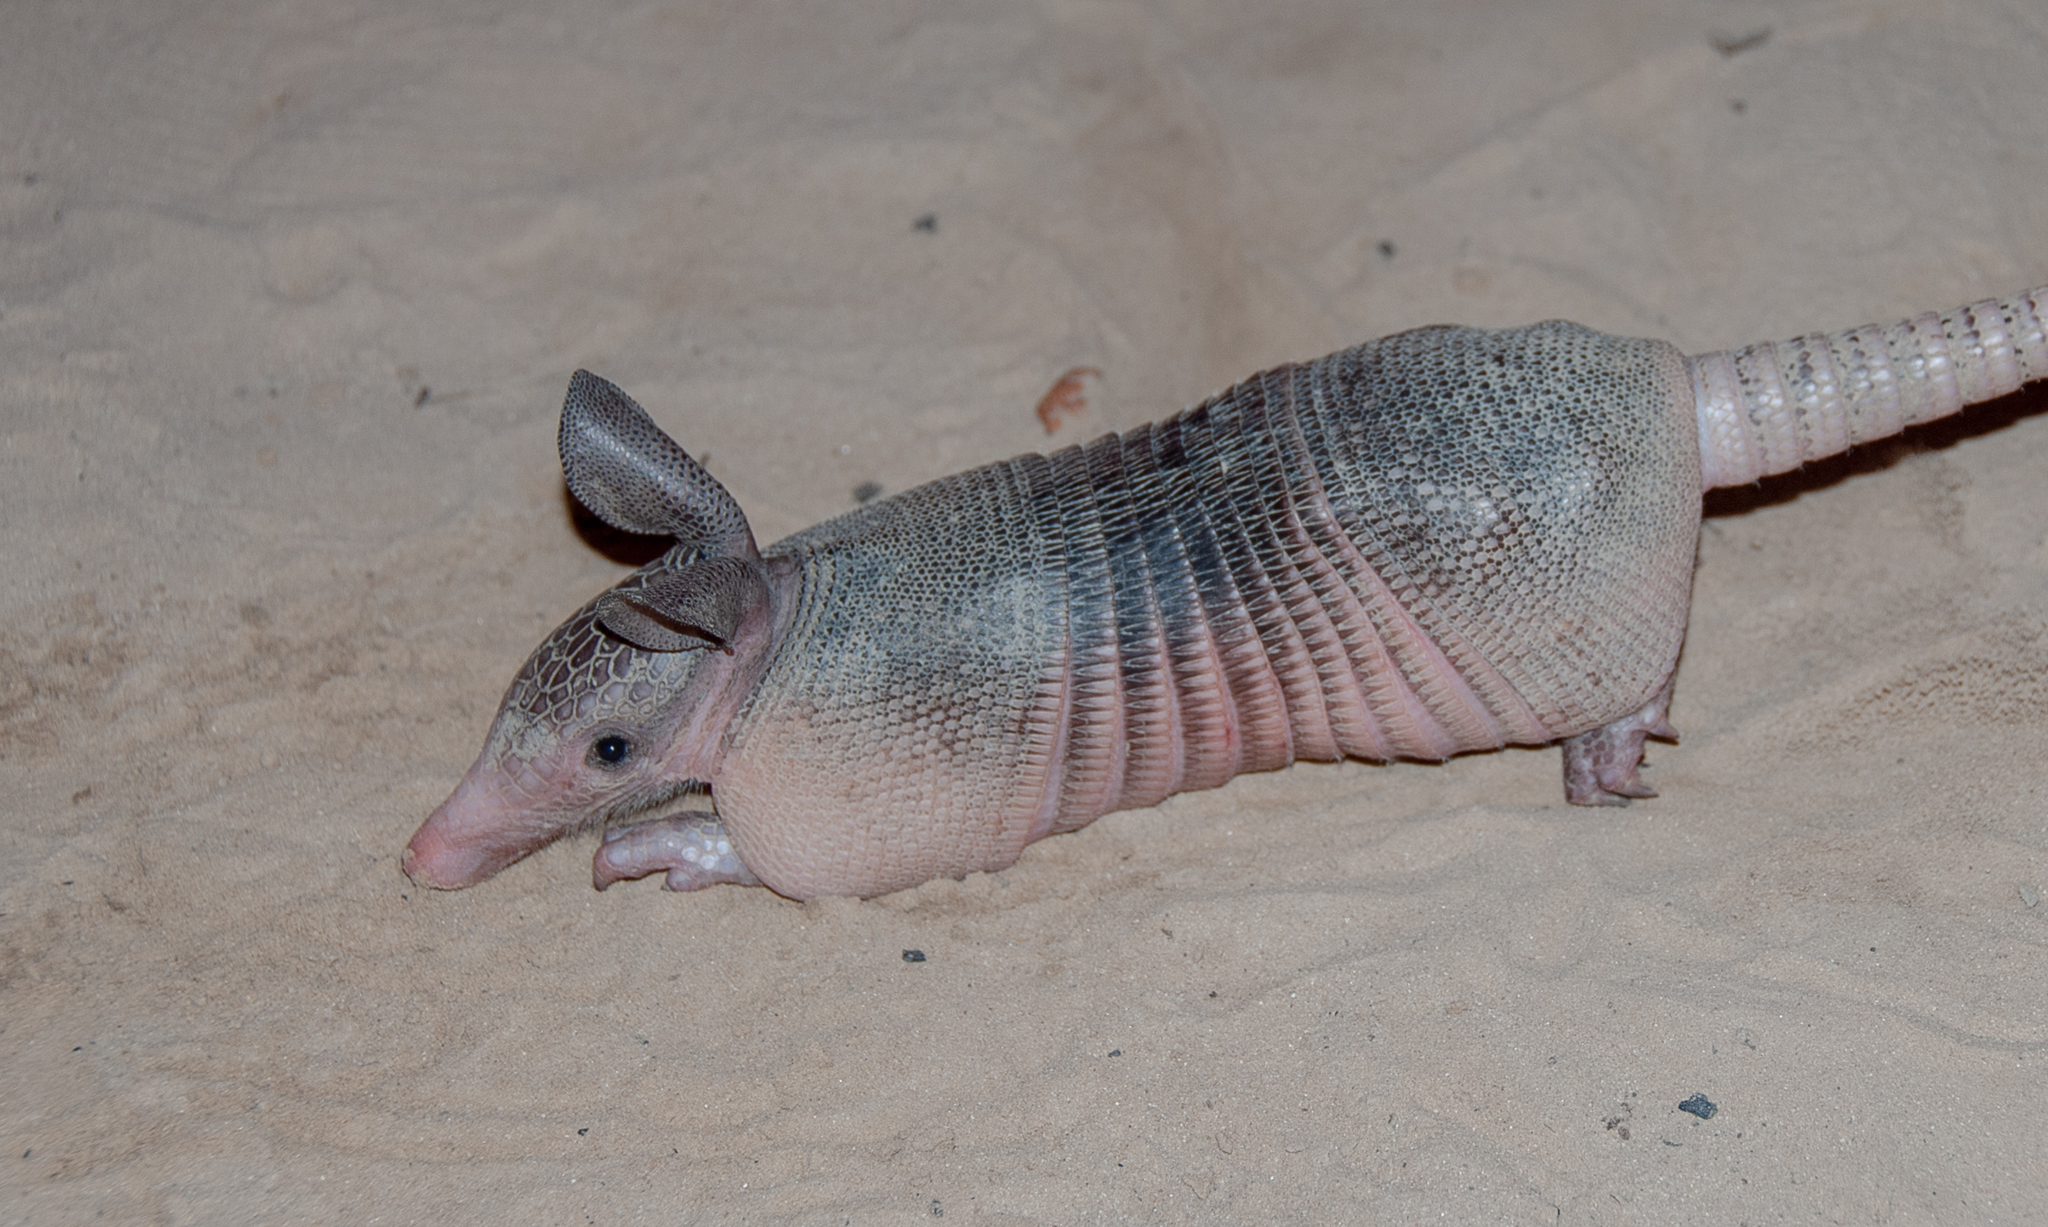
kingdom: Animalia
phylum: Chordata
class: Mammalia
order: Cingulata
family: Dasypodidae
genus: Dasypus
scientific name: Dasypus novemcinctus
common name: Nine-banded armadillo
